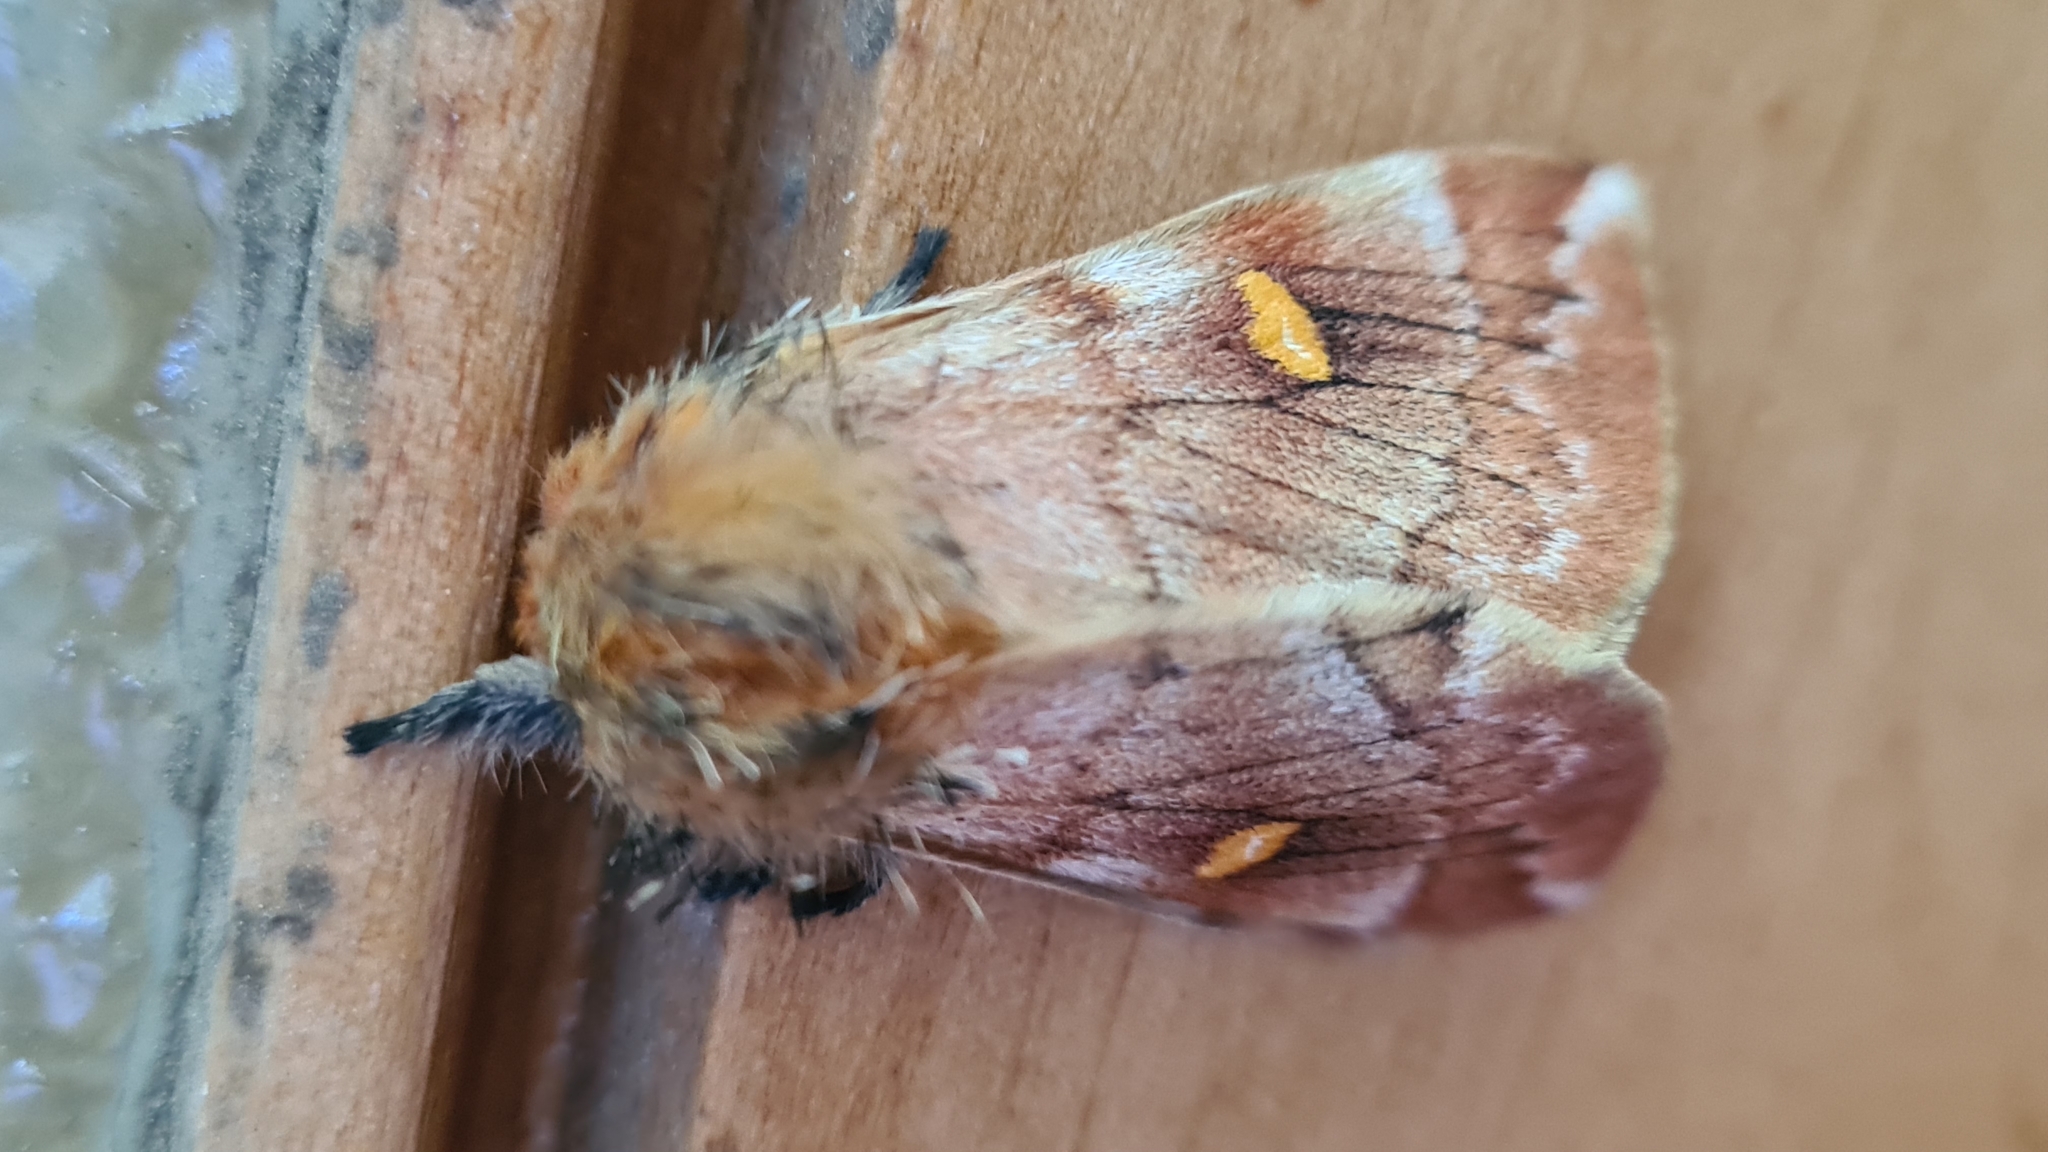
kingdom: Animalia
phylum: Arthropoda
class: Insecta
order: Lepidoptera
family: Saturniidae
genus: Ormiscodes
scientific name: Ormiscodes amphinome
